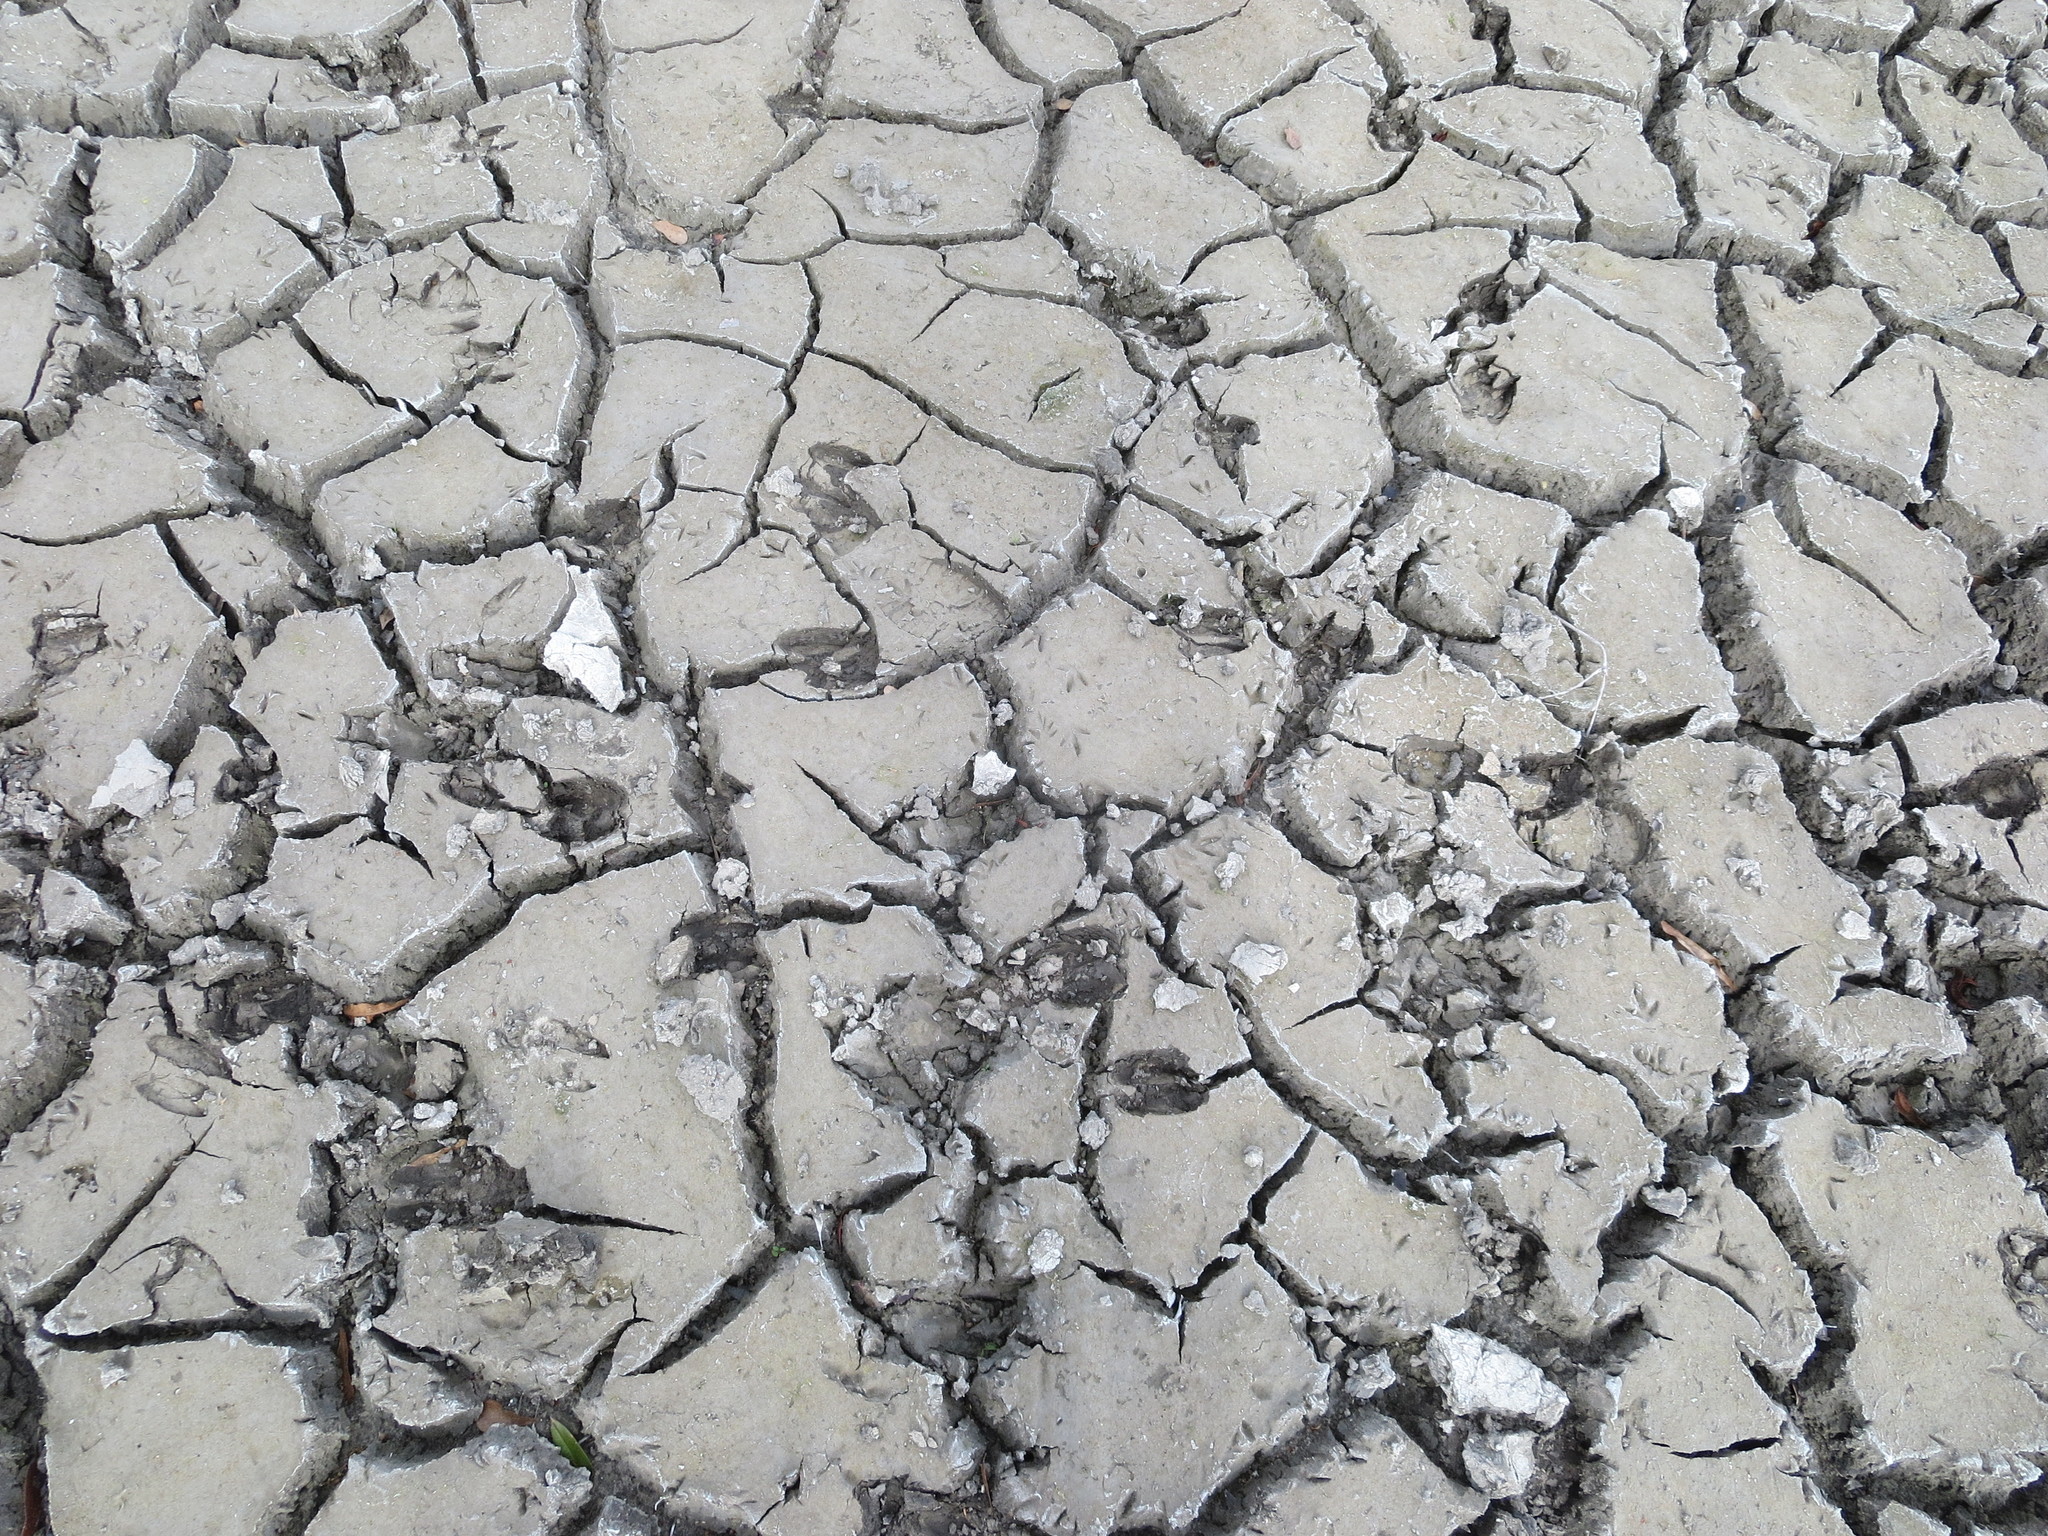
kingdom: Animalia
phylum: Chordata
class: Mammalia
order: Artiodactyla
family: Cervidae
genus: Odocoileus
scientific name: Odocoileus virginianus
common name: White-tailed deer
